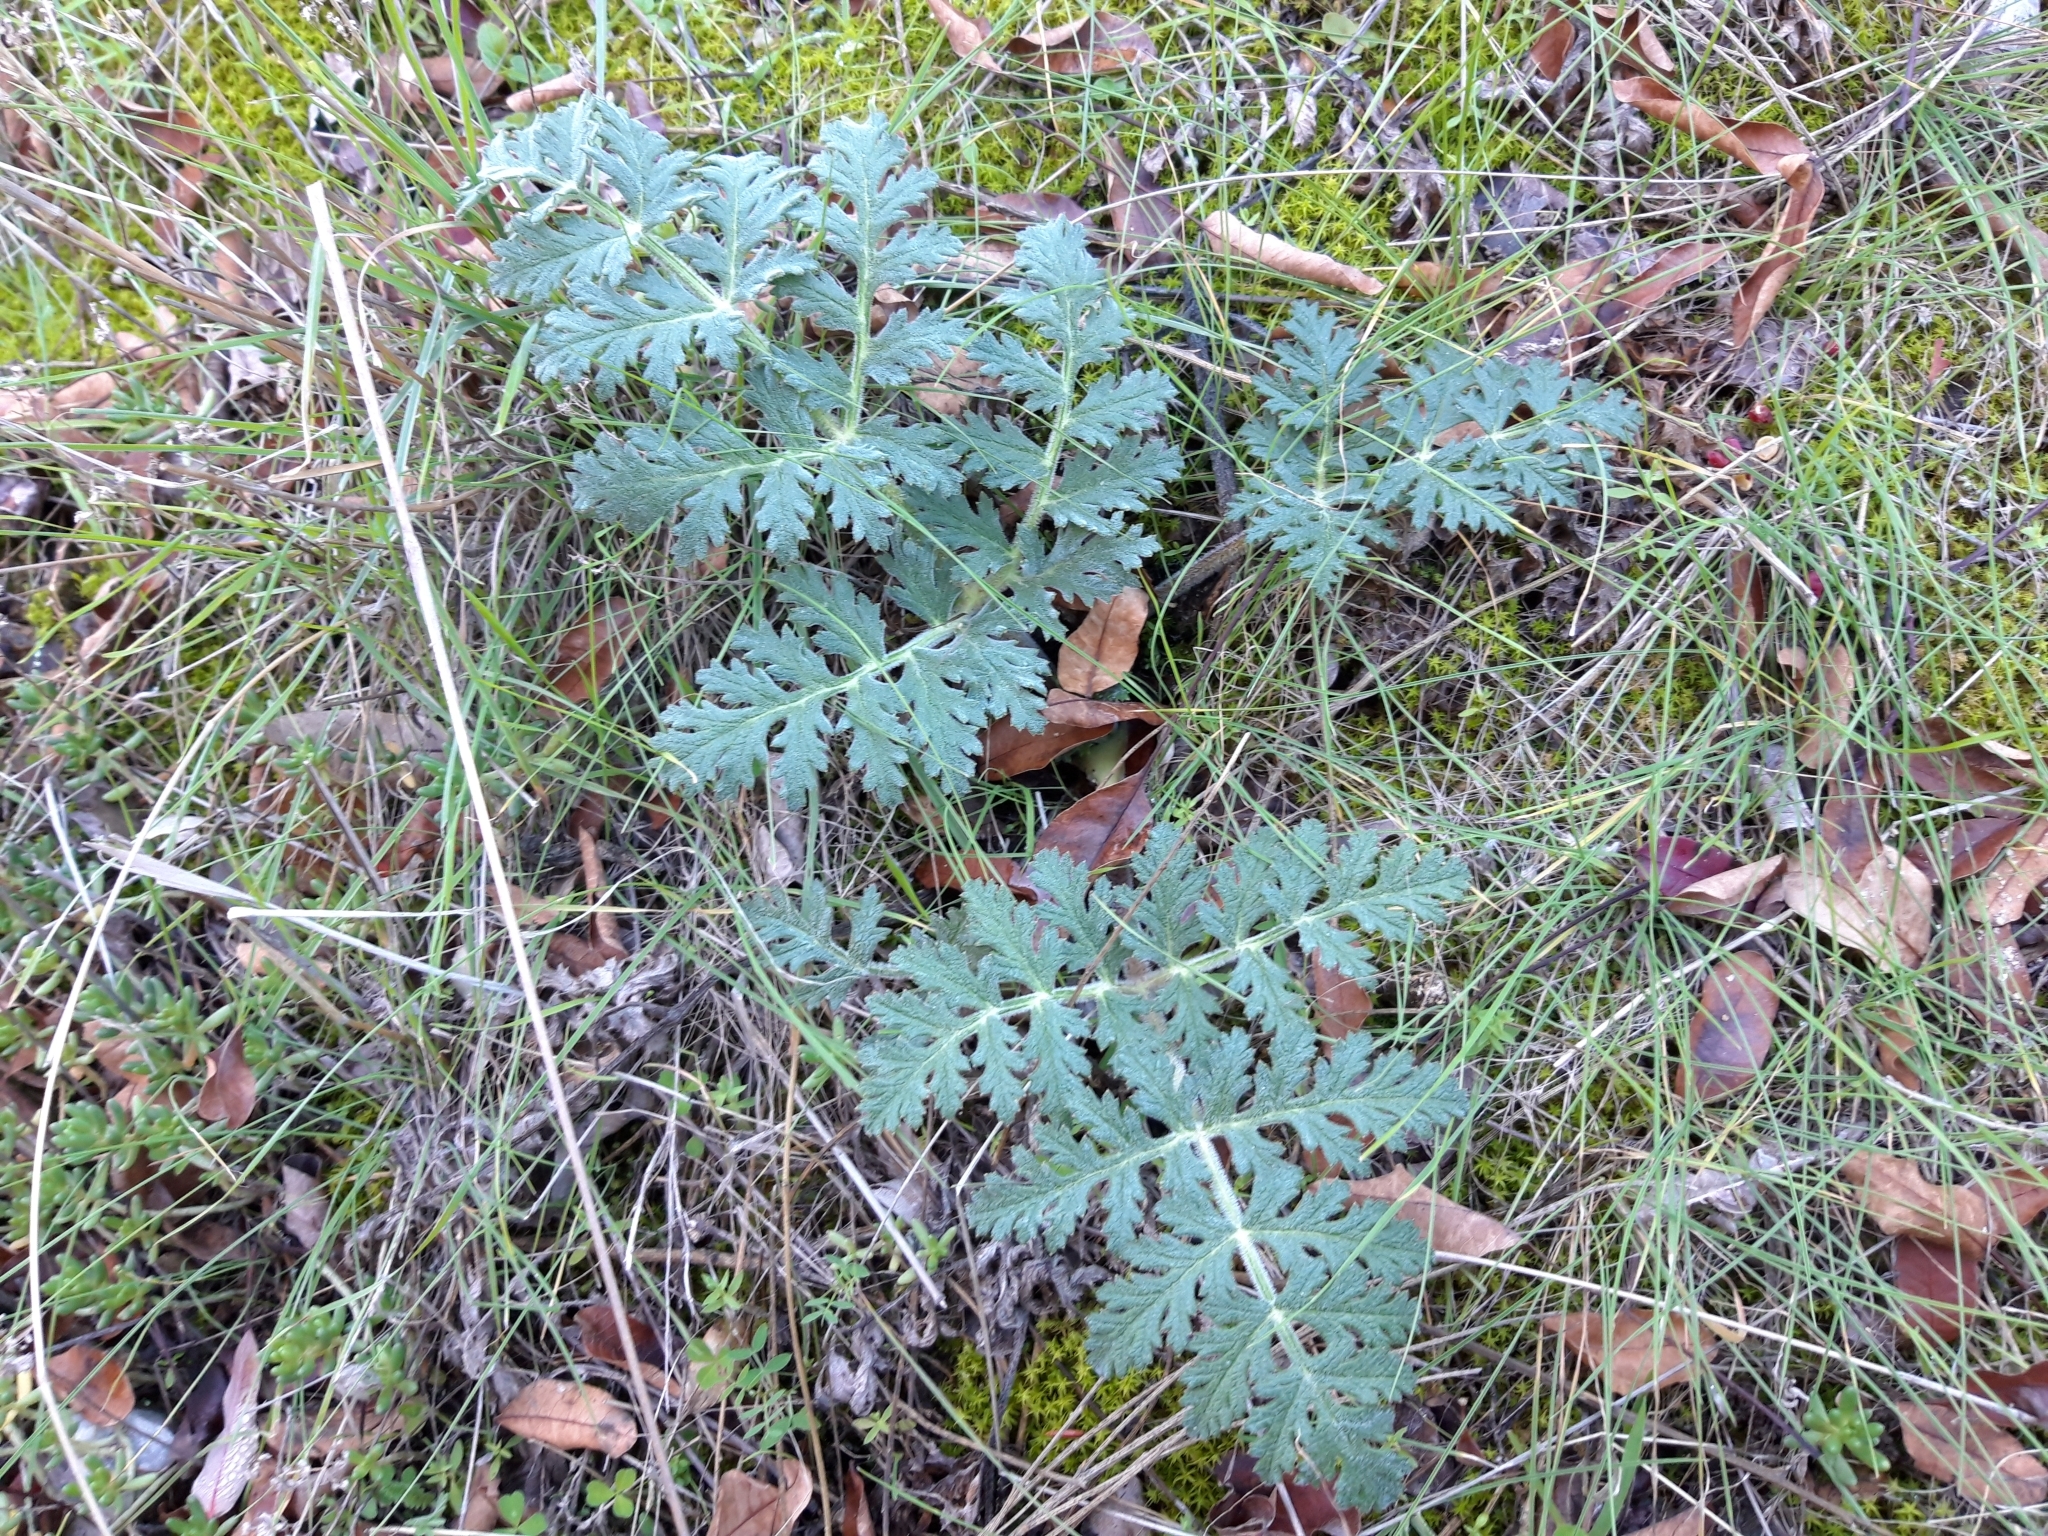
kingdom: Plantae
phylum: Tracheophyta
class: Magnoliopsida
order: Apiales
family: Apiaceae
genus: Thapsia
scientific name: Thapsia villosa
